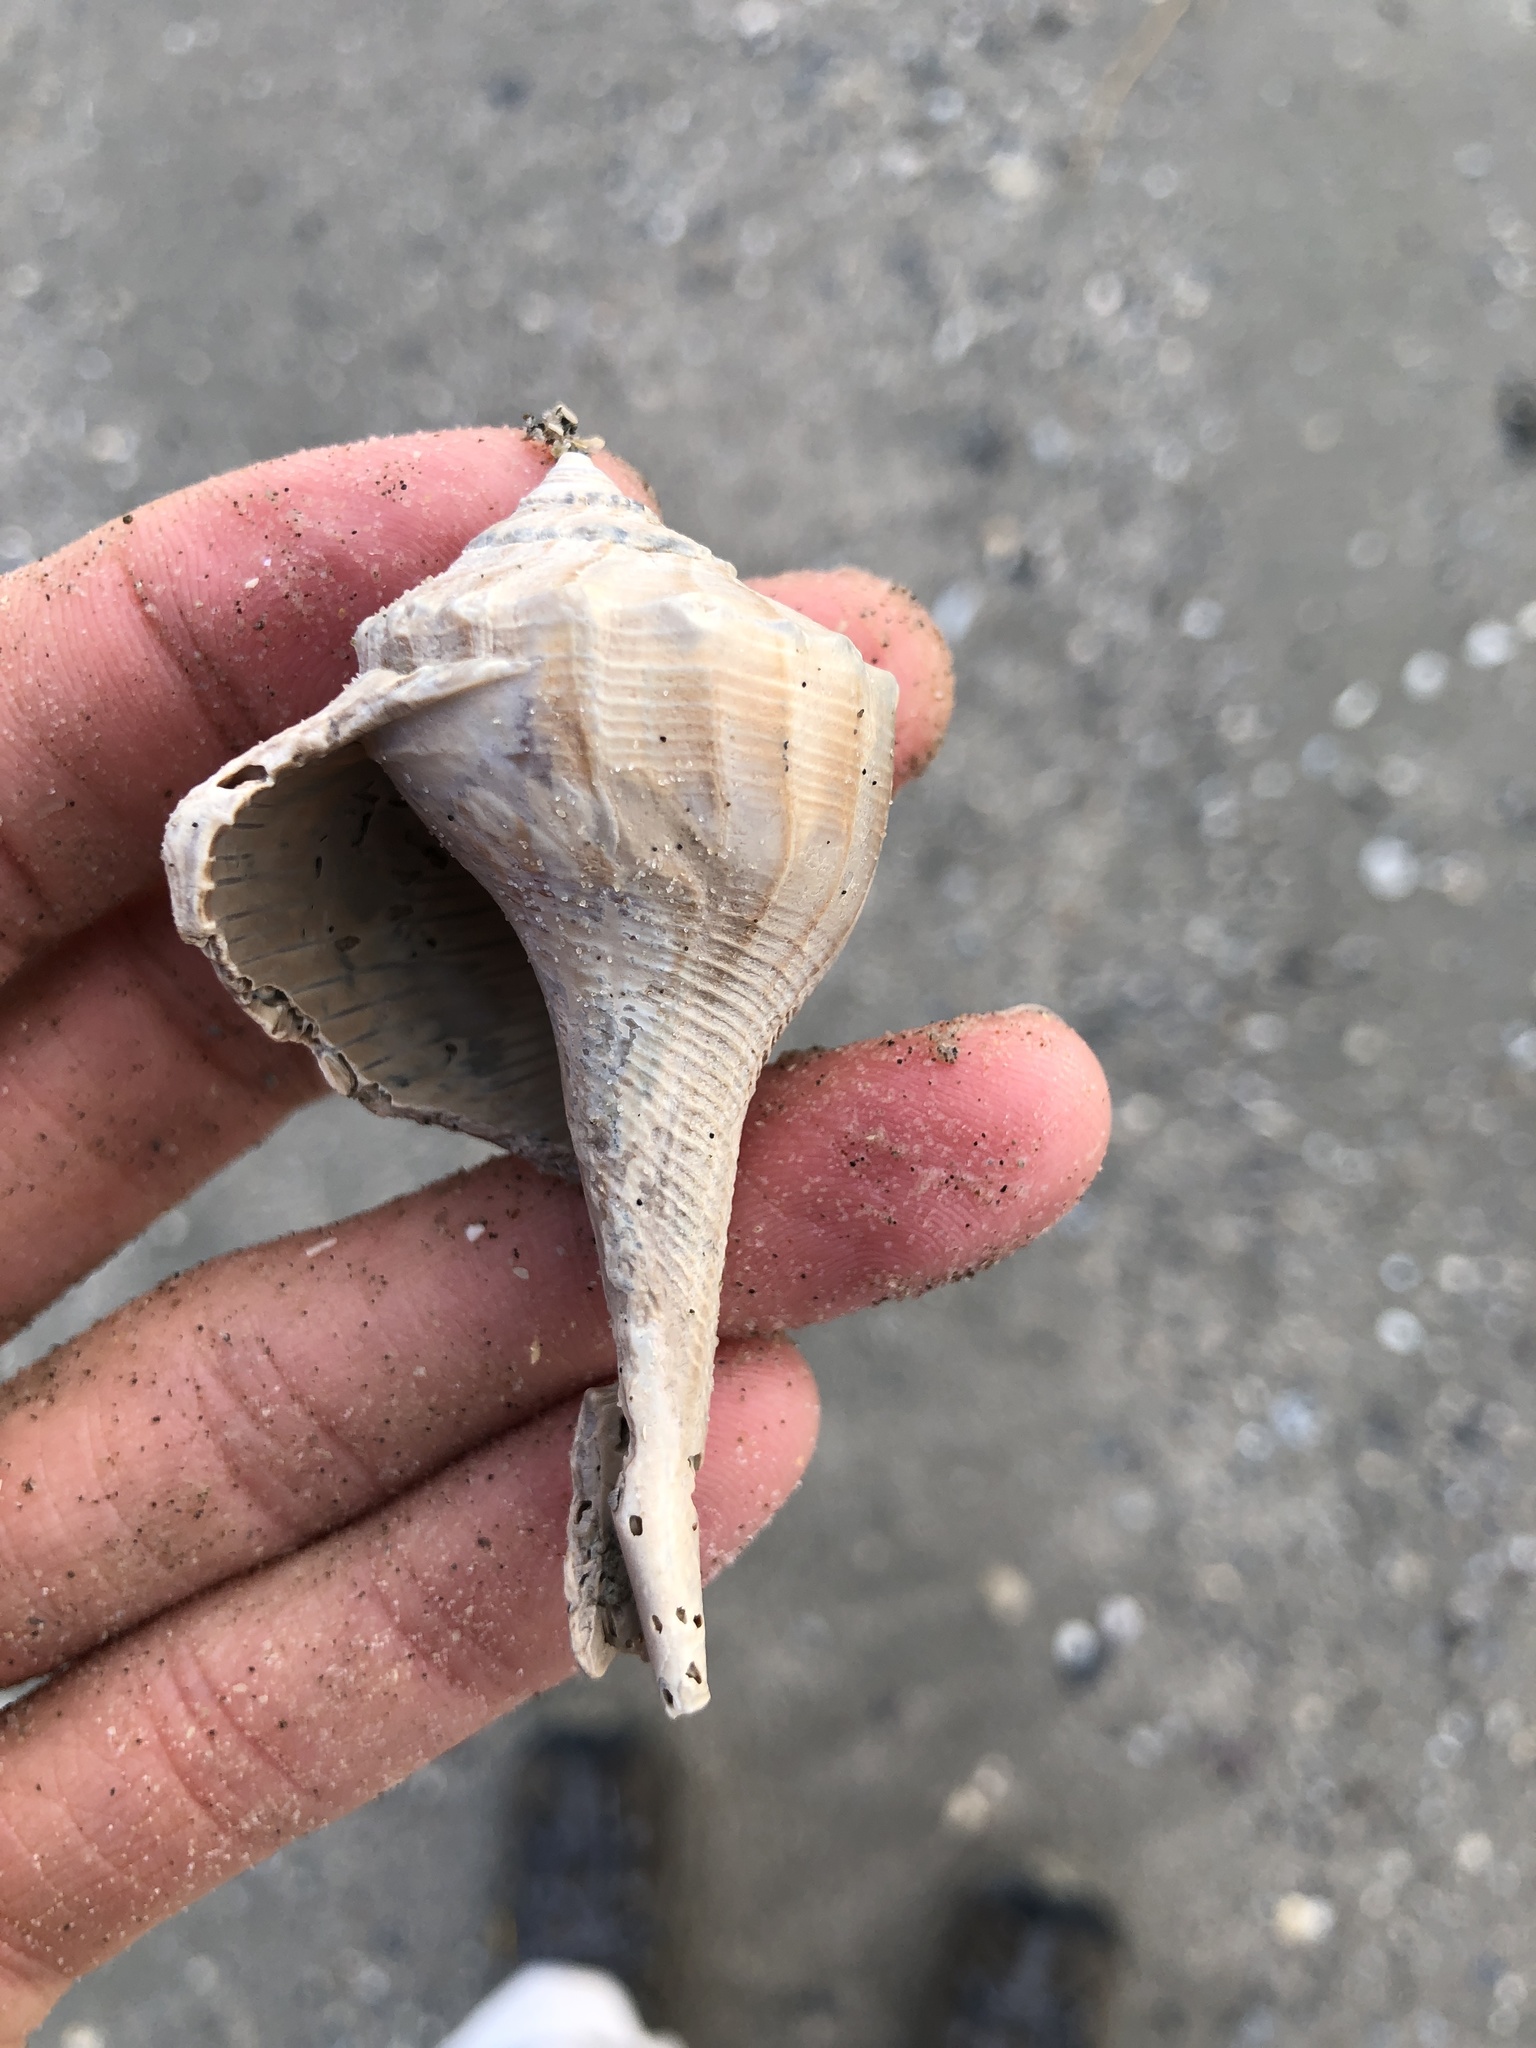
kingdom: Animalia
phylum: Mollusca
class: Gastropoda
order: Neogastropoda
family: Busyconidae
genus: Sinistrofulgur
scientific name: Sinistrofulgur pulleyi
